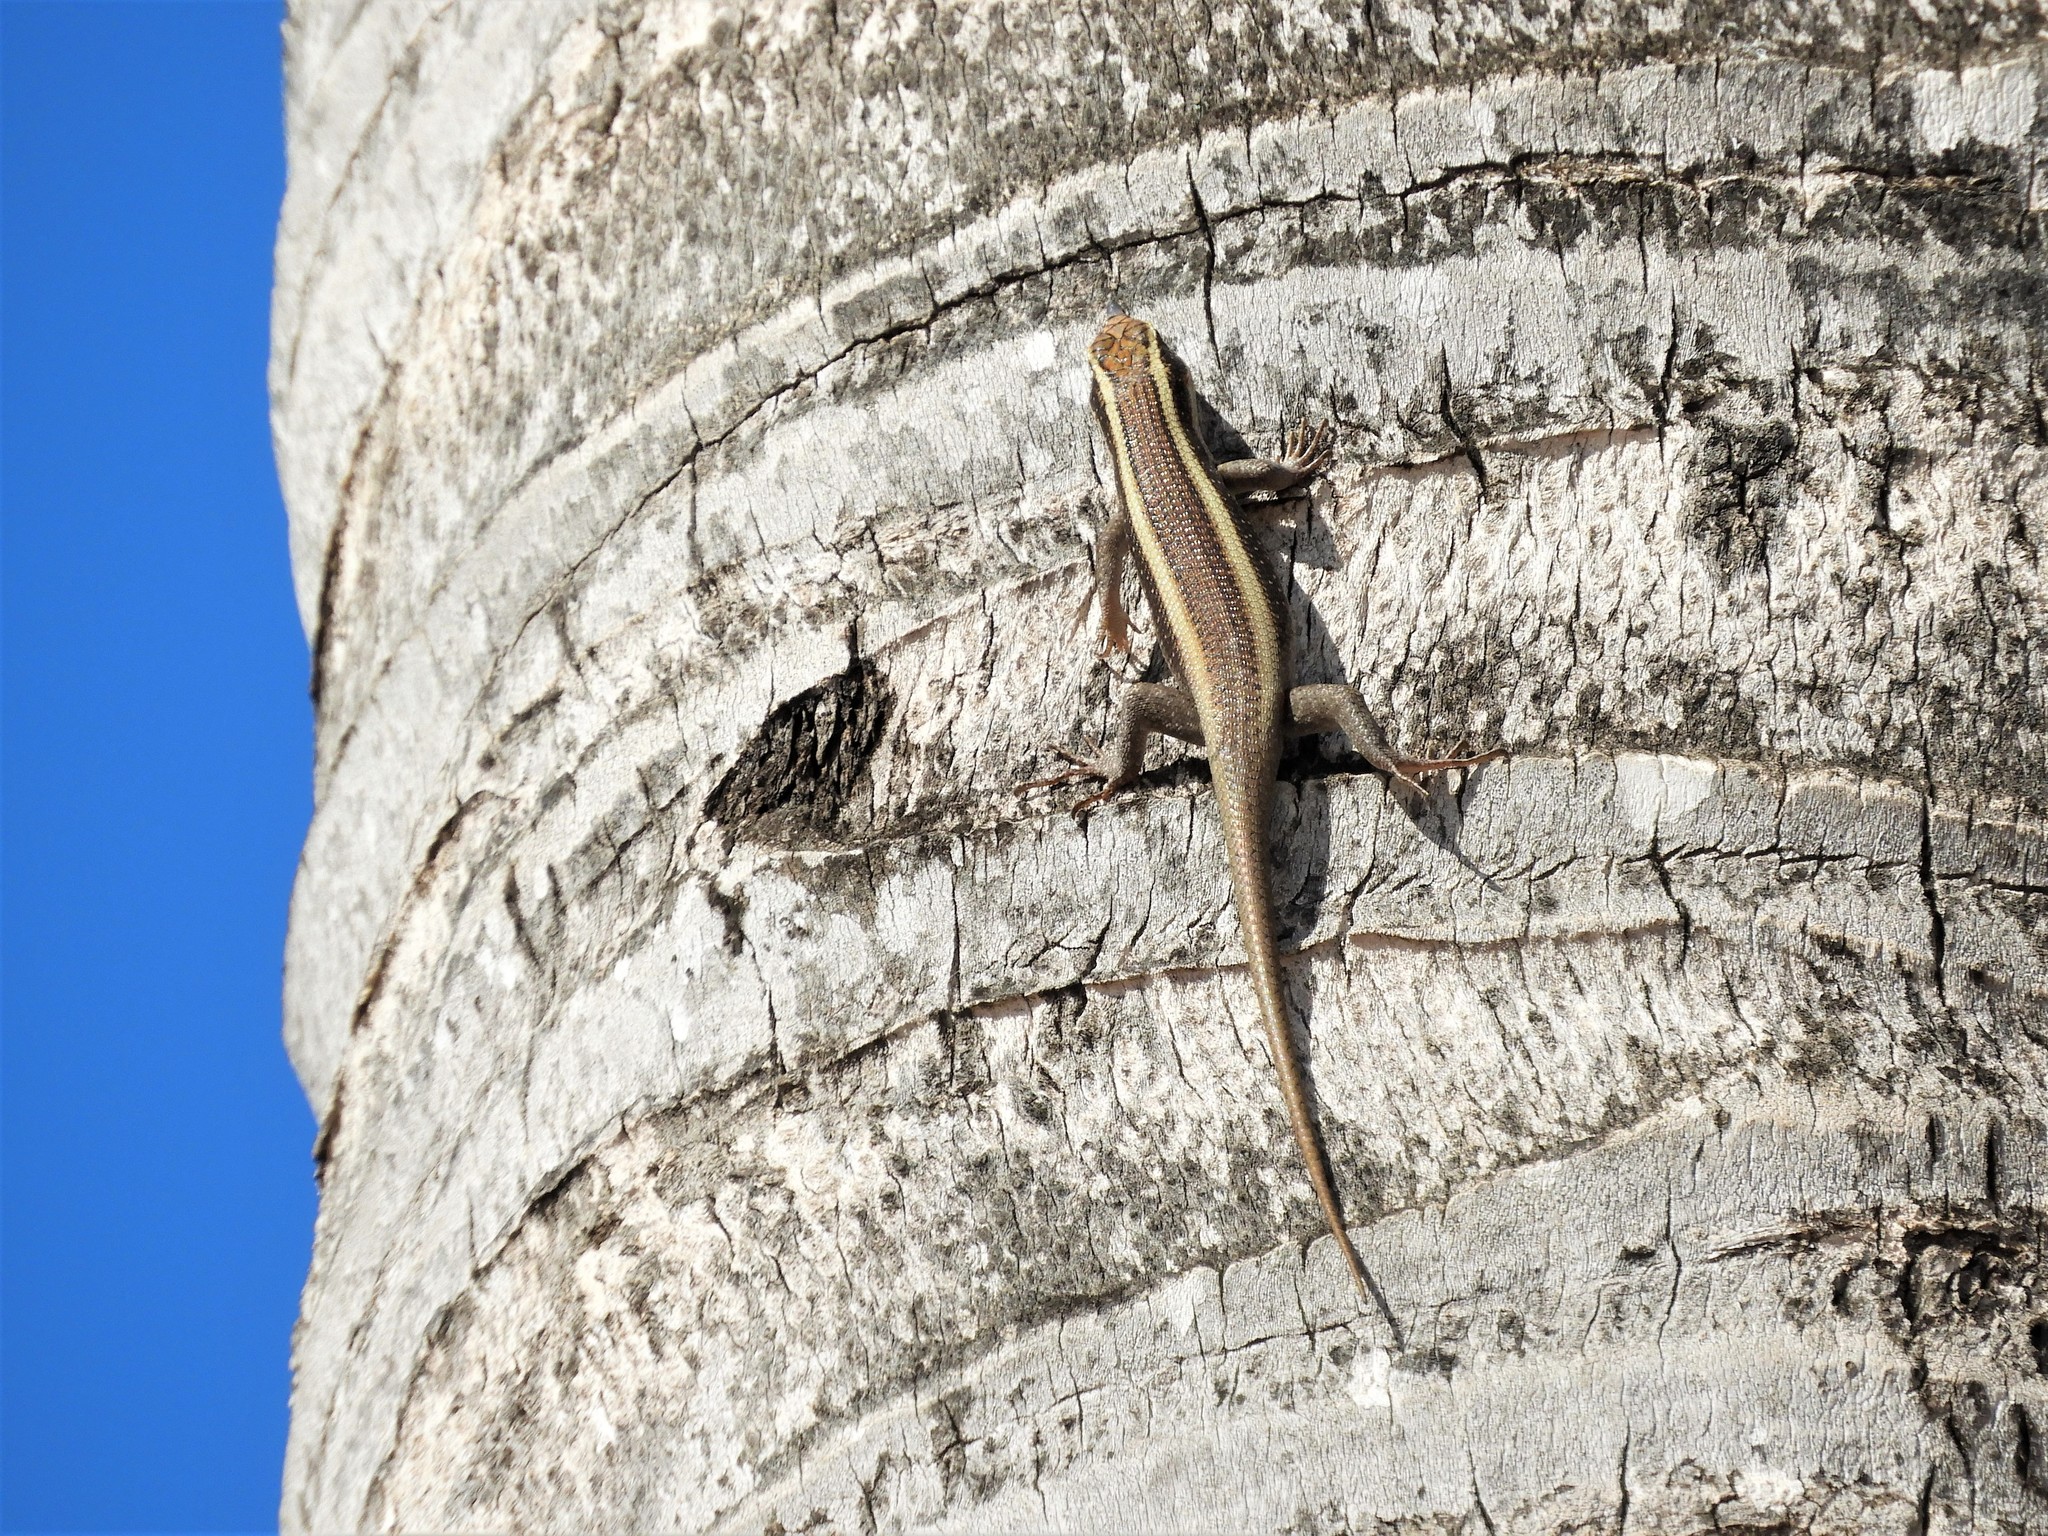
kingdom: Animalia
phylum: Chordata
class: Squamata
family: Scincidae
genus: Trachylepis
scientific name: Trachylepis striata
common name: African striped mabuya
